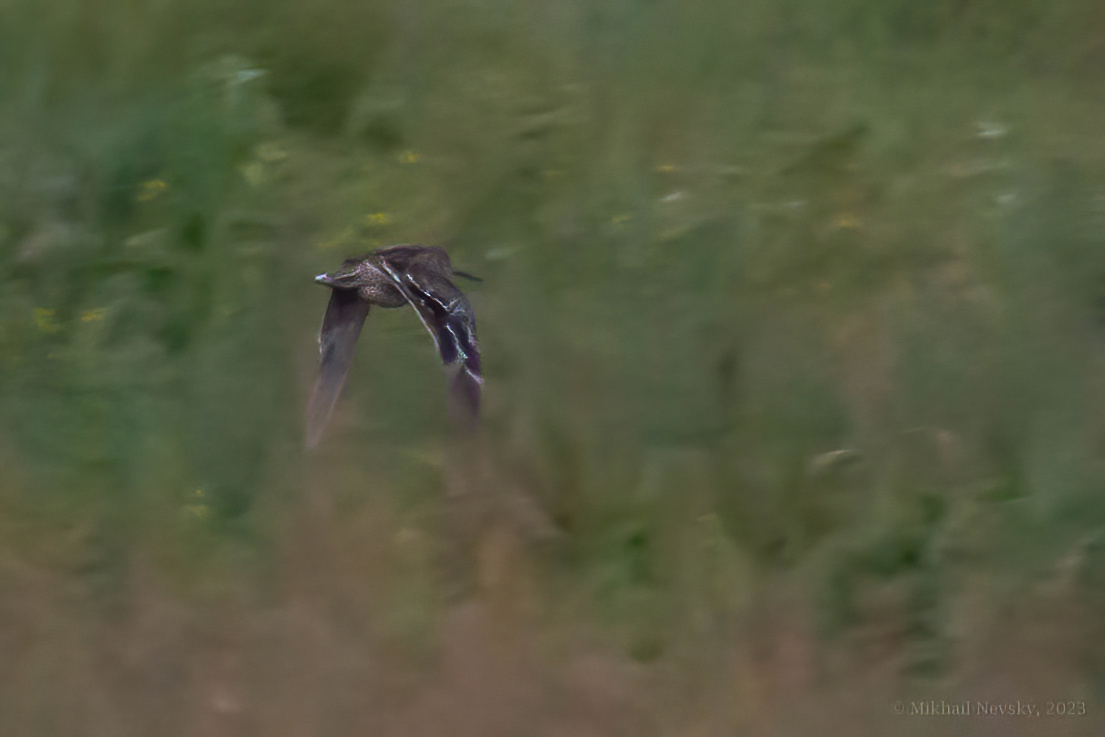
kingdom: Animalia
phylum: Chordata
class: Aves
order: Charadriiformes
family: Scolopacidae
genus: Gallinago
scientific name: Gallinago media
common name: Great snipe
